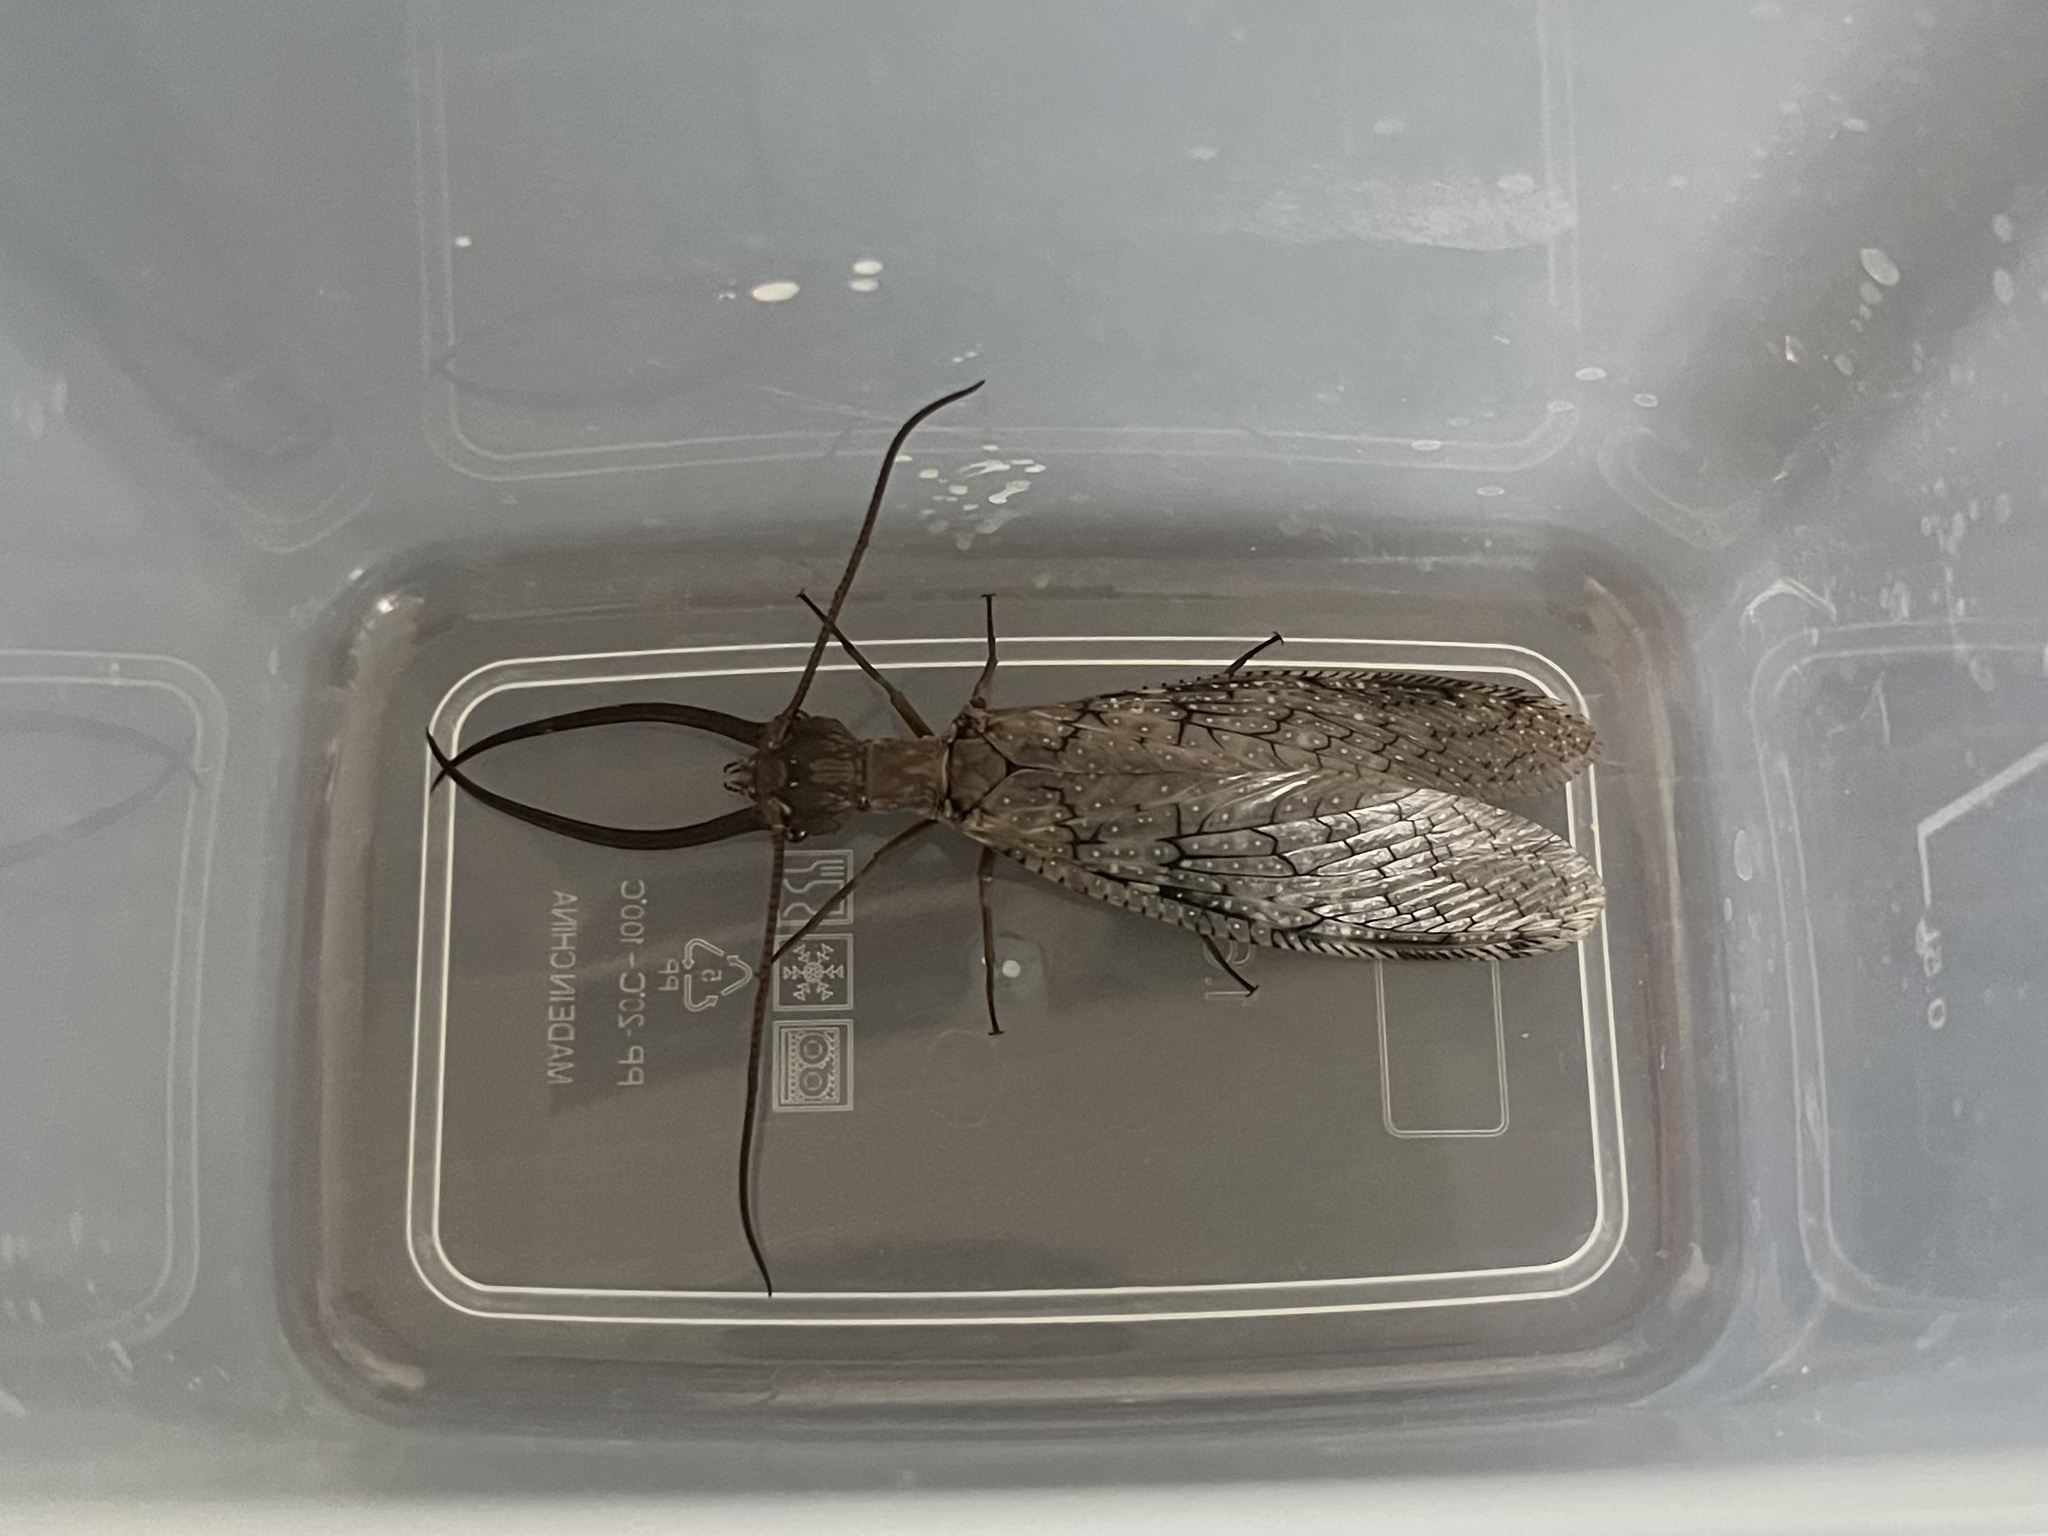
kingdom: Animalia
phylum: Arthropoda
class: Insecta
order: Megaloptera
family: Corydalidae
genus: Corydalus
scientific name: Corydalus cornutus
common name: Dobsonfly
